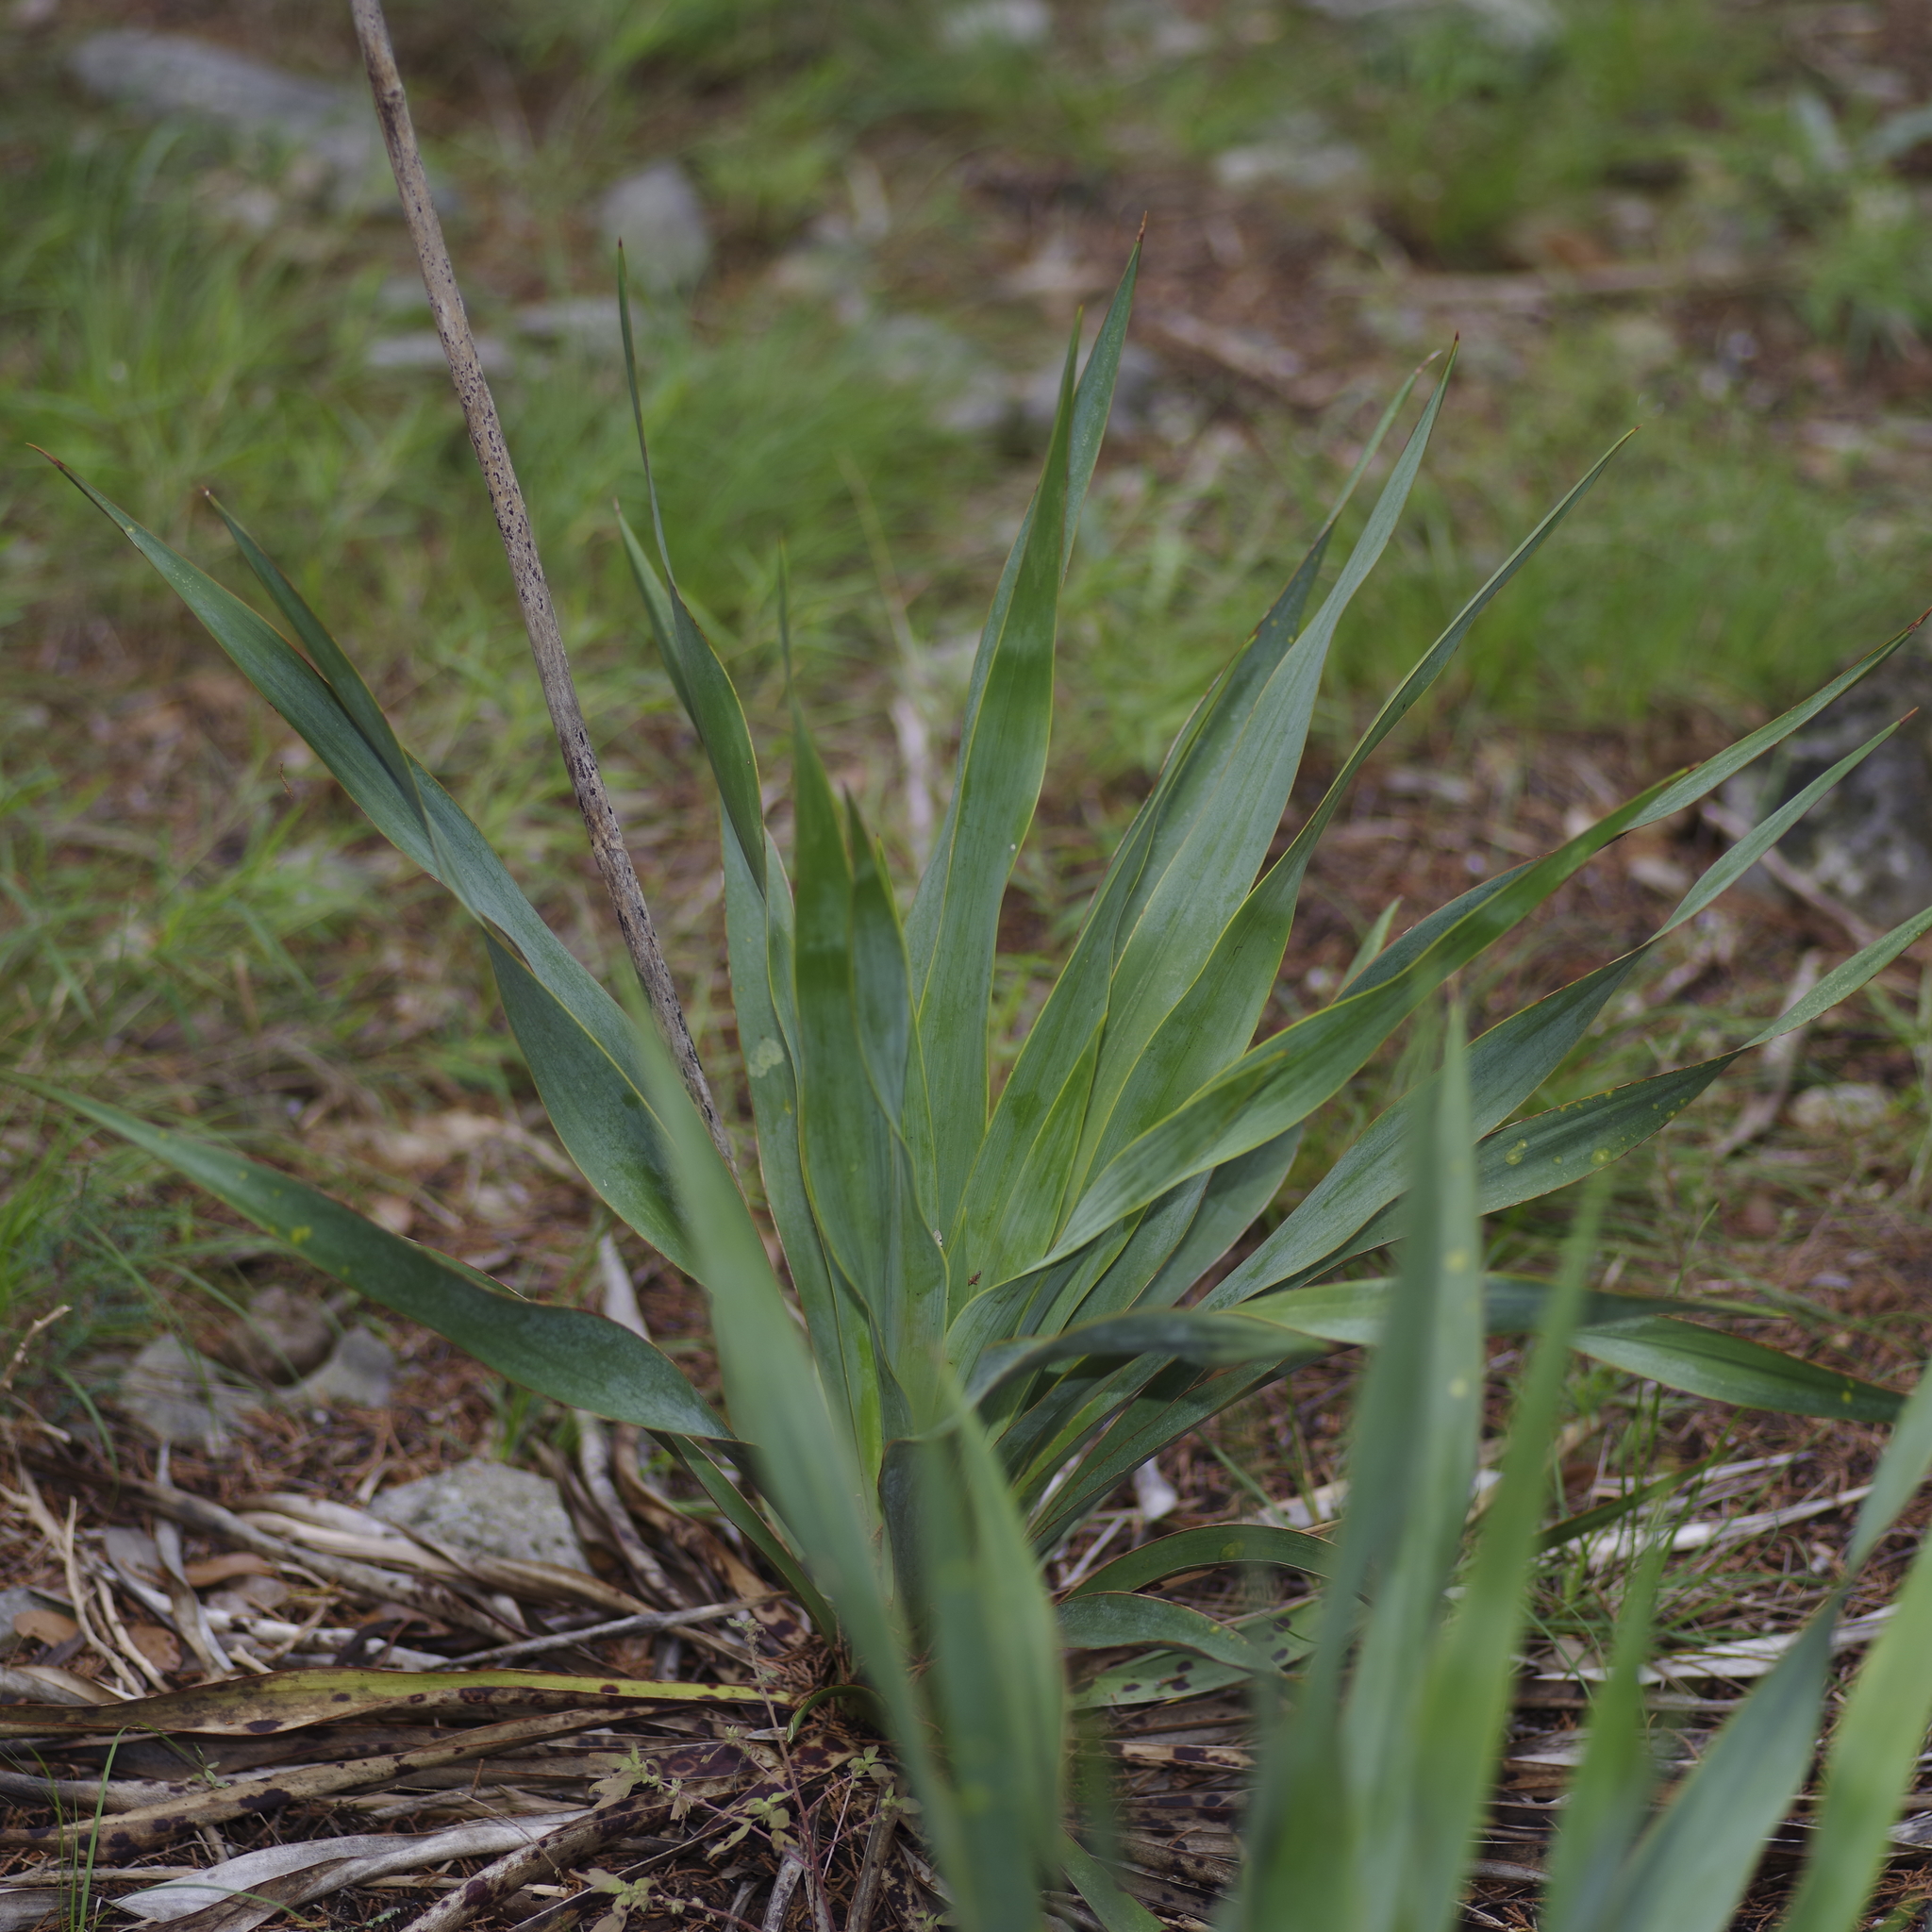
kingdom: Plantae
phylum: Tracheophyta
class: Liliopsida
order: Asparagales
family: Asparagaceae
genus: Yucca
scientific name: Yucca rupicola
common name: Twisted-leaf spanish-dagger
